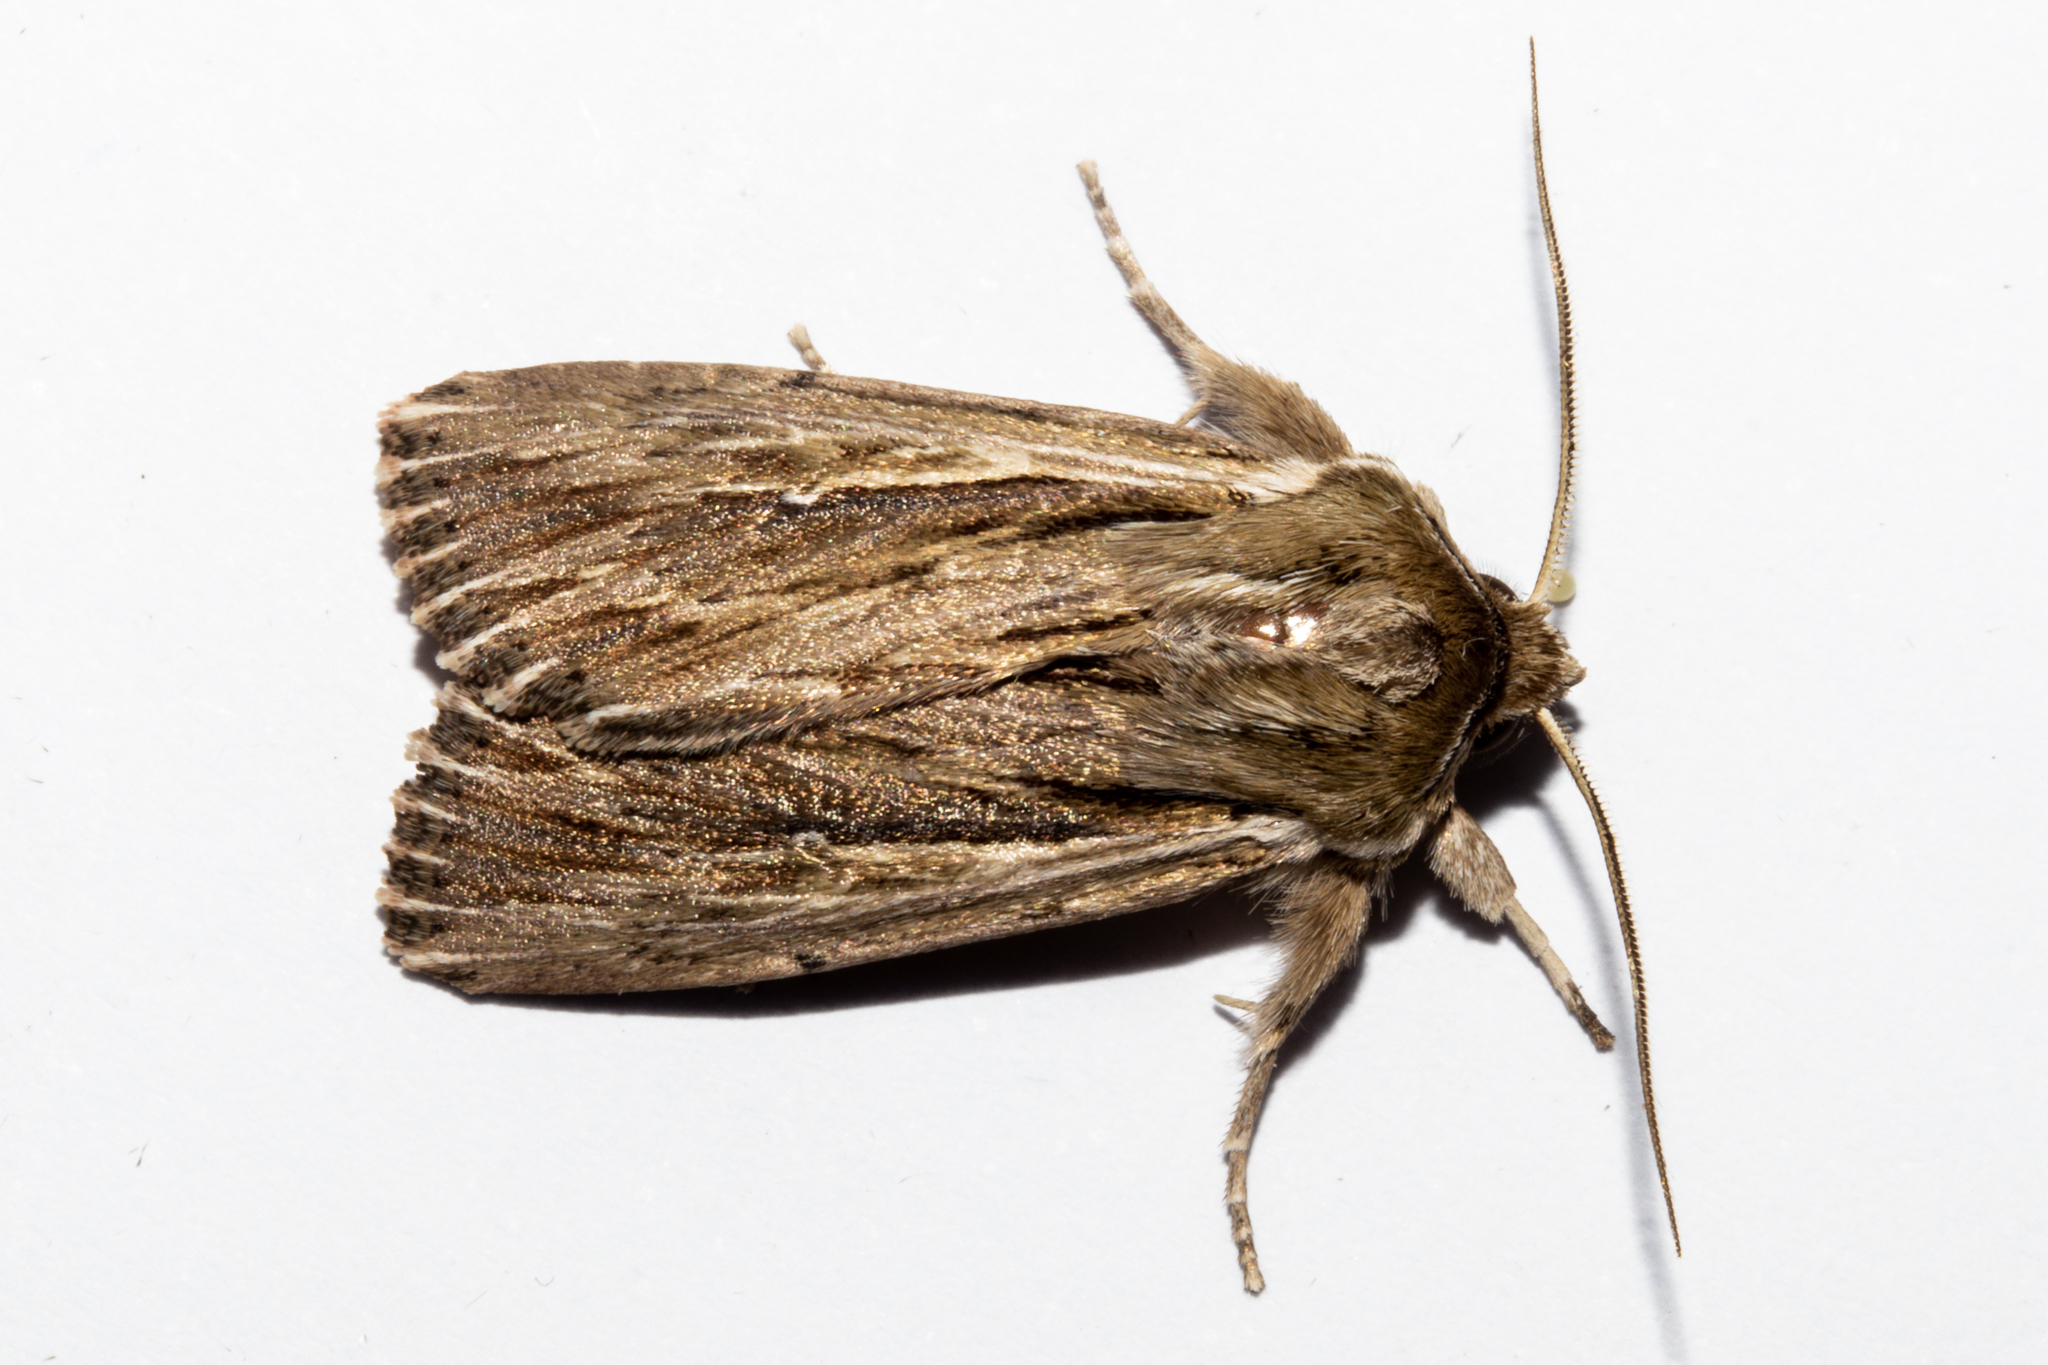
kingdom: Animalia
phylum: Arthropoda
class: Insecta
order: Lepidoptera
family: Noctuidae
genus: Persectania
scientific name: Persectania aversa
